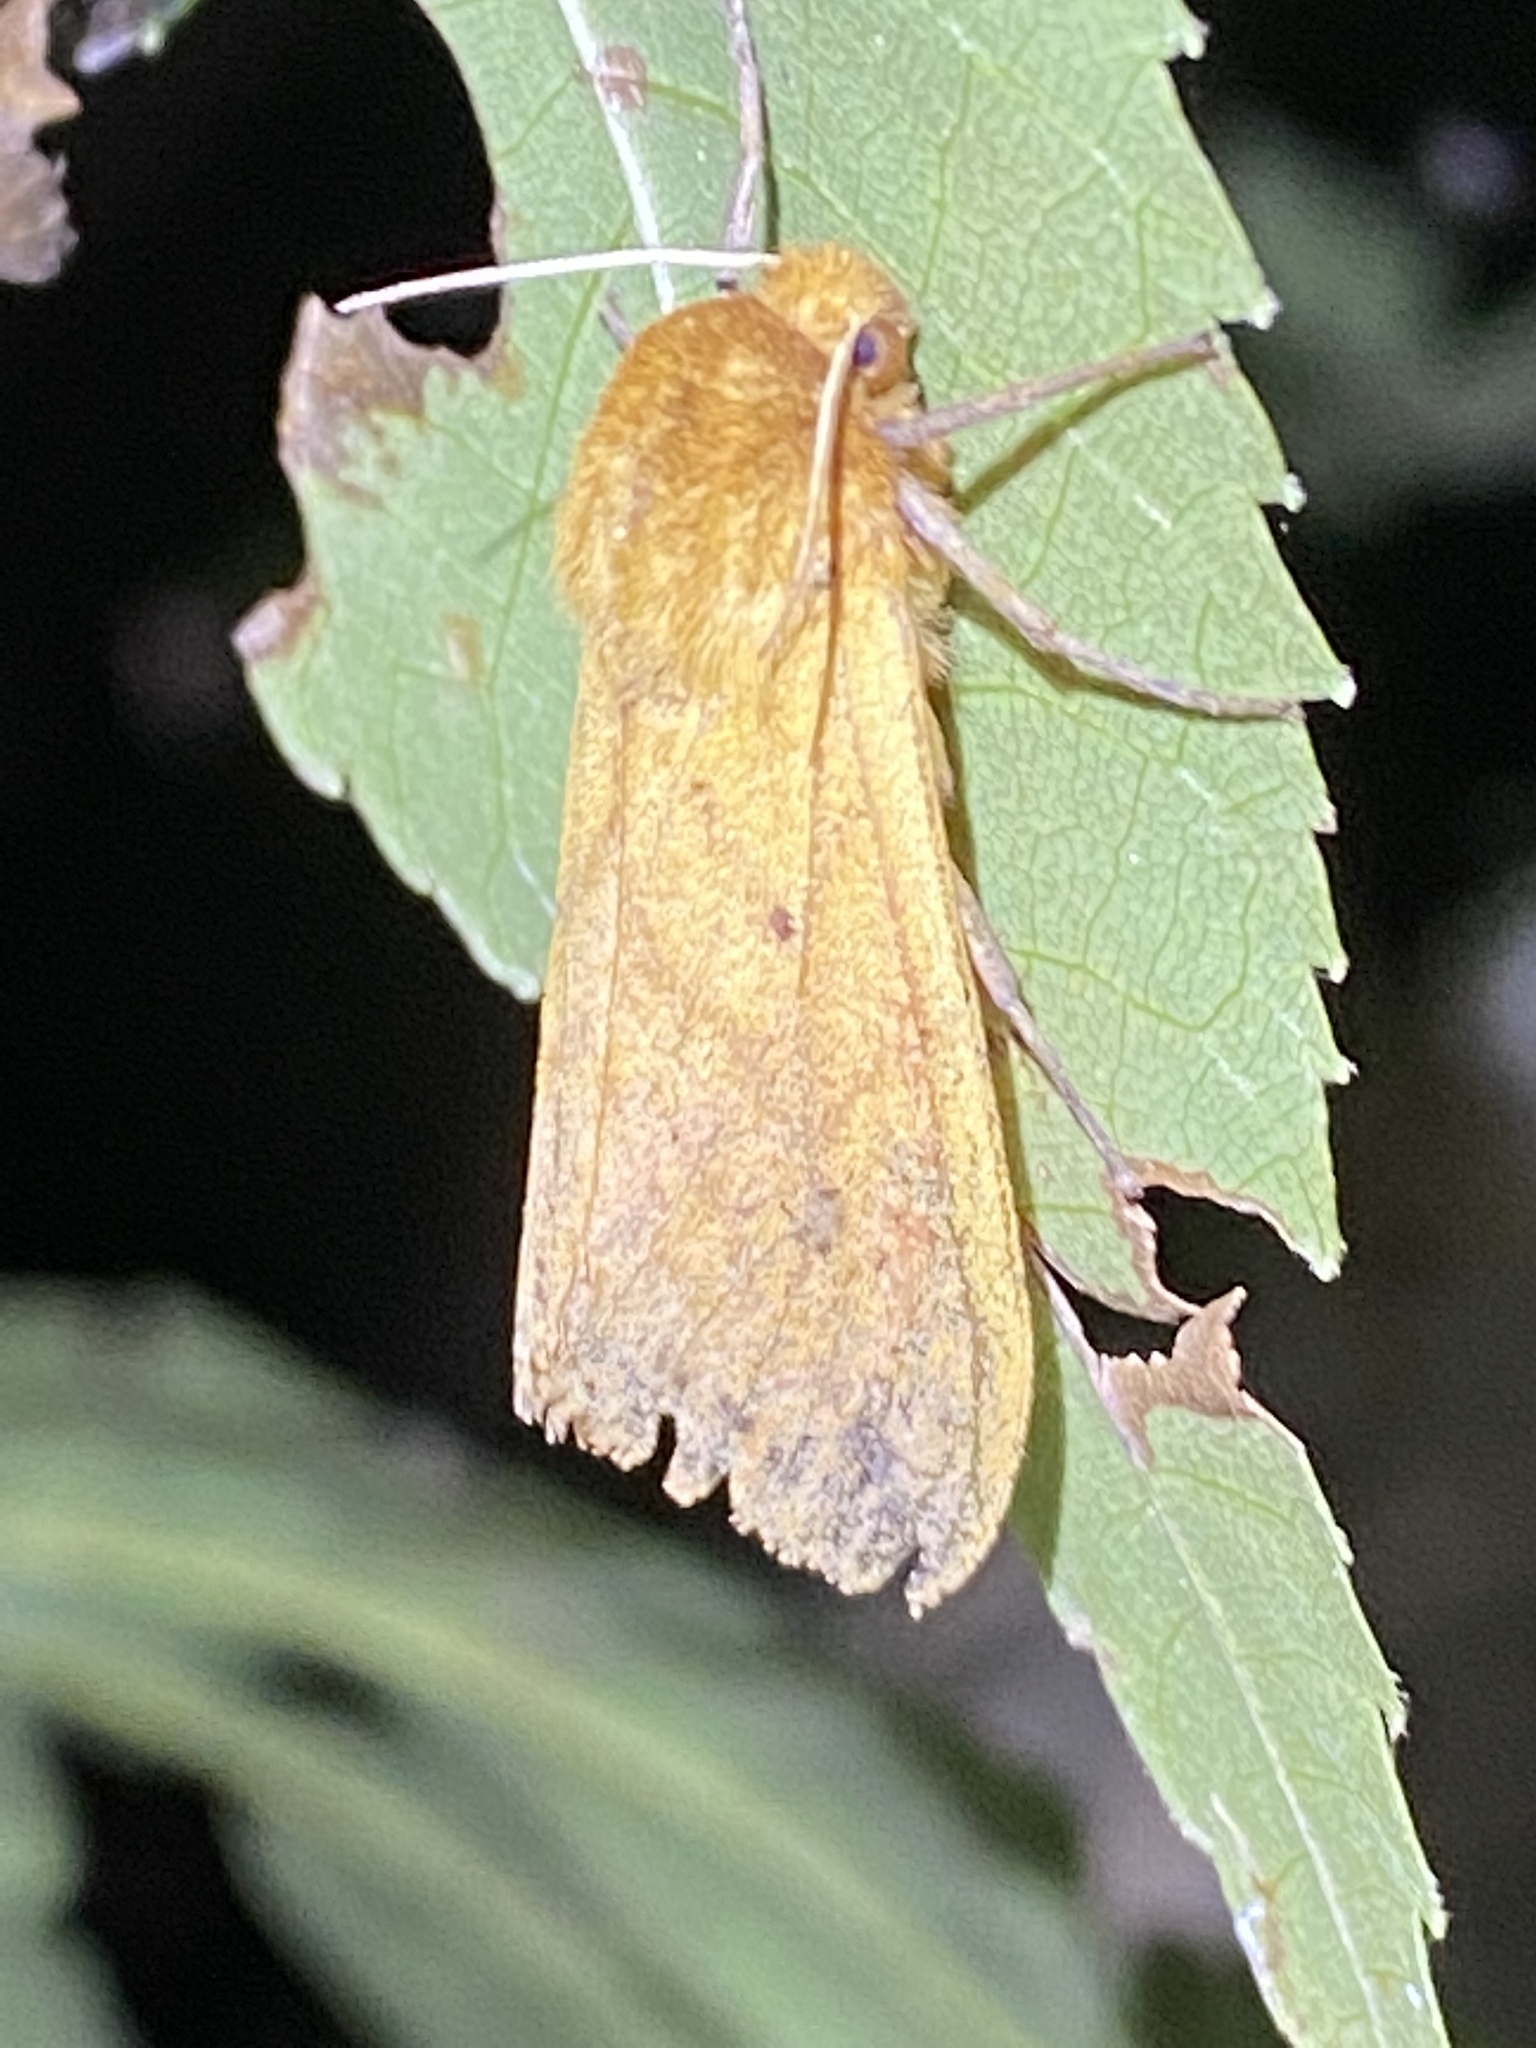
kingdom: Animalia
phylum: Arthropoda
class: Insecta
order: Lepidoptera
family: Erebidae
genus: Pyrrharctia
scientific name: Pyrrharctia isabella
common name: Isabella tiger moth
